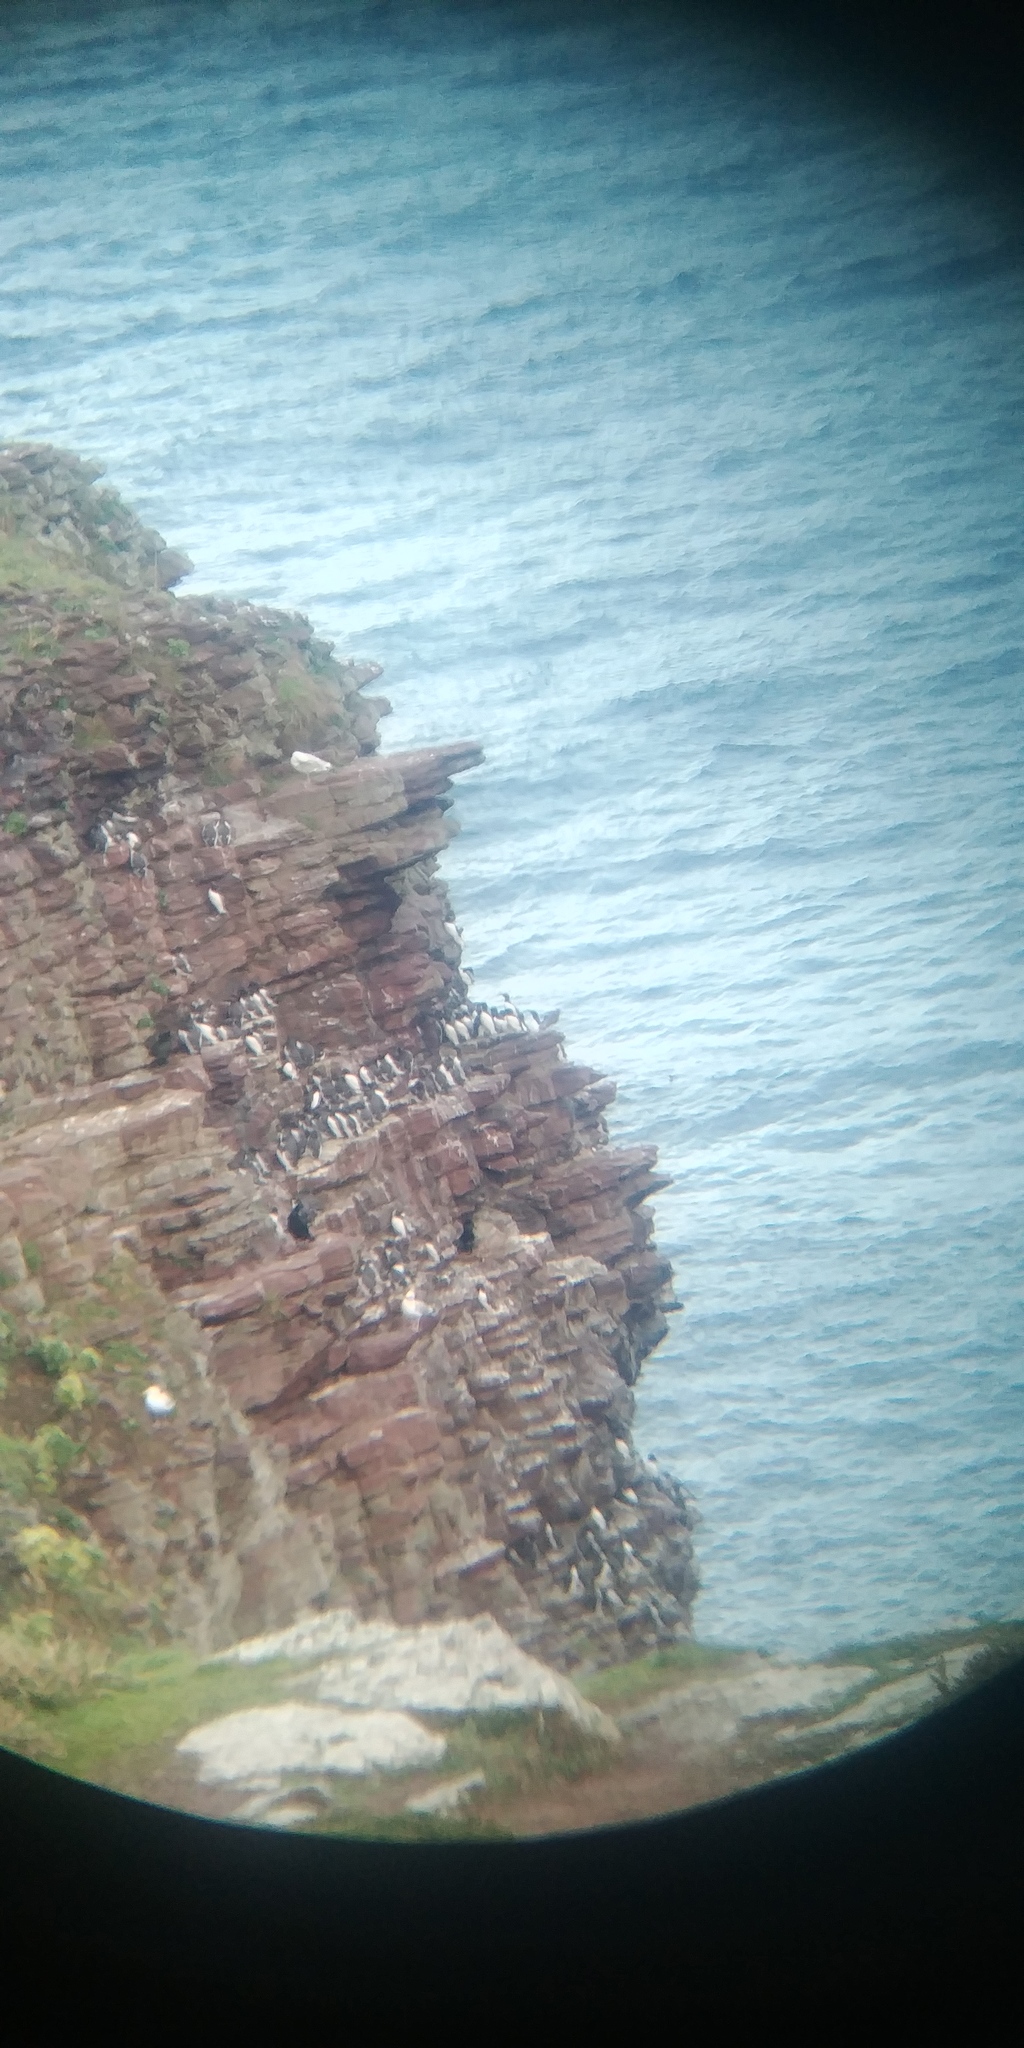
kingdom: Animalia
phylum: Chordata
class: Aves
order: Charadriiformes
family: Alcidae
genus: Uria
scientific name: Uria aalge
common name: Common murre
